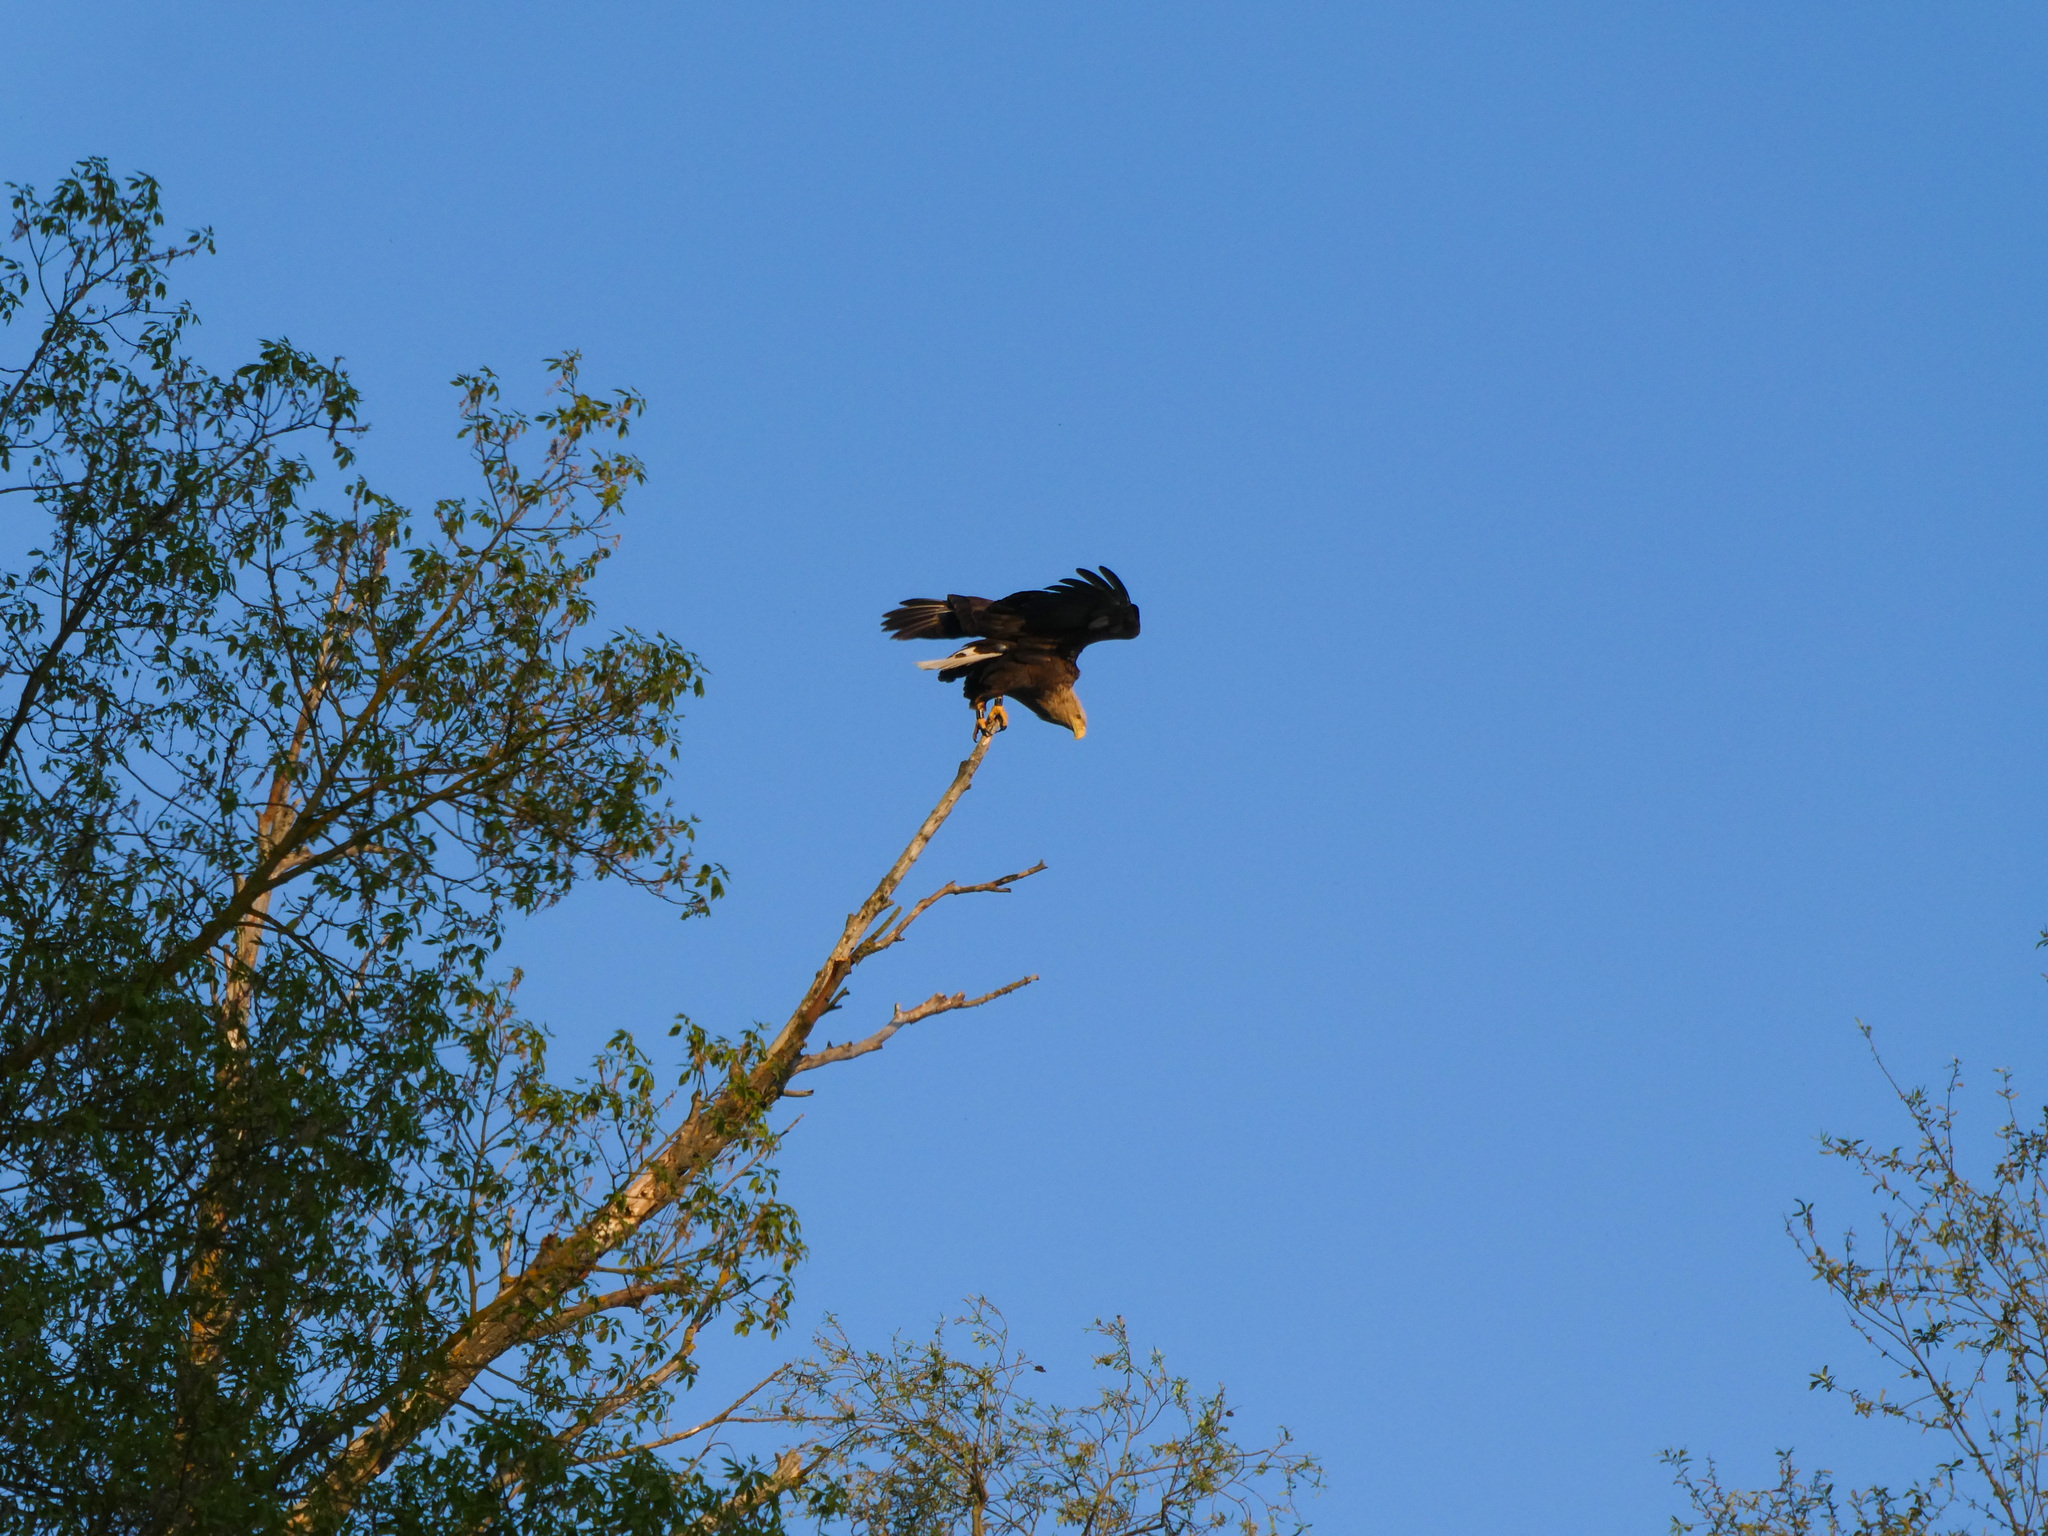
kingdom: Animalia
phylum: Chordata
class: Aves
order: Accipitriformes
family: Accipitridae
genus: Haliaeetus
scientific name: Haliaeetus albicilla
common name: White-tailed eagle
